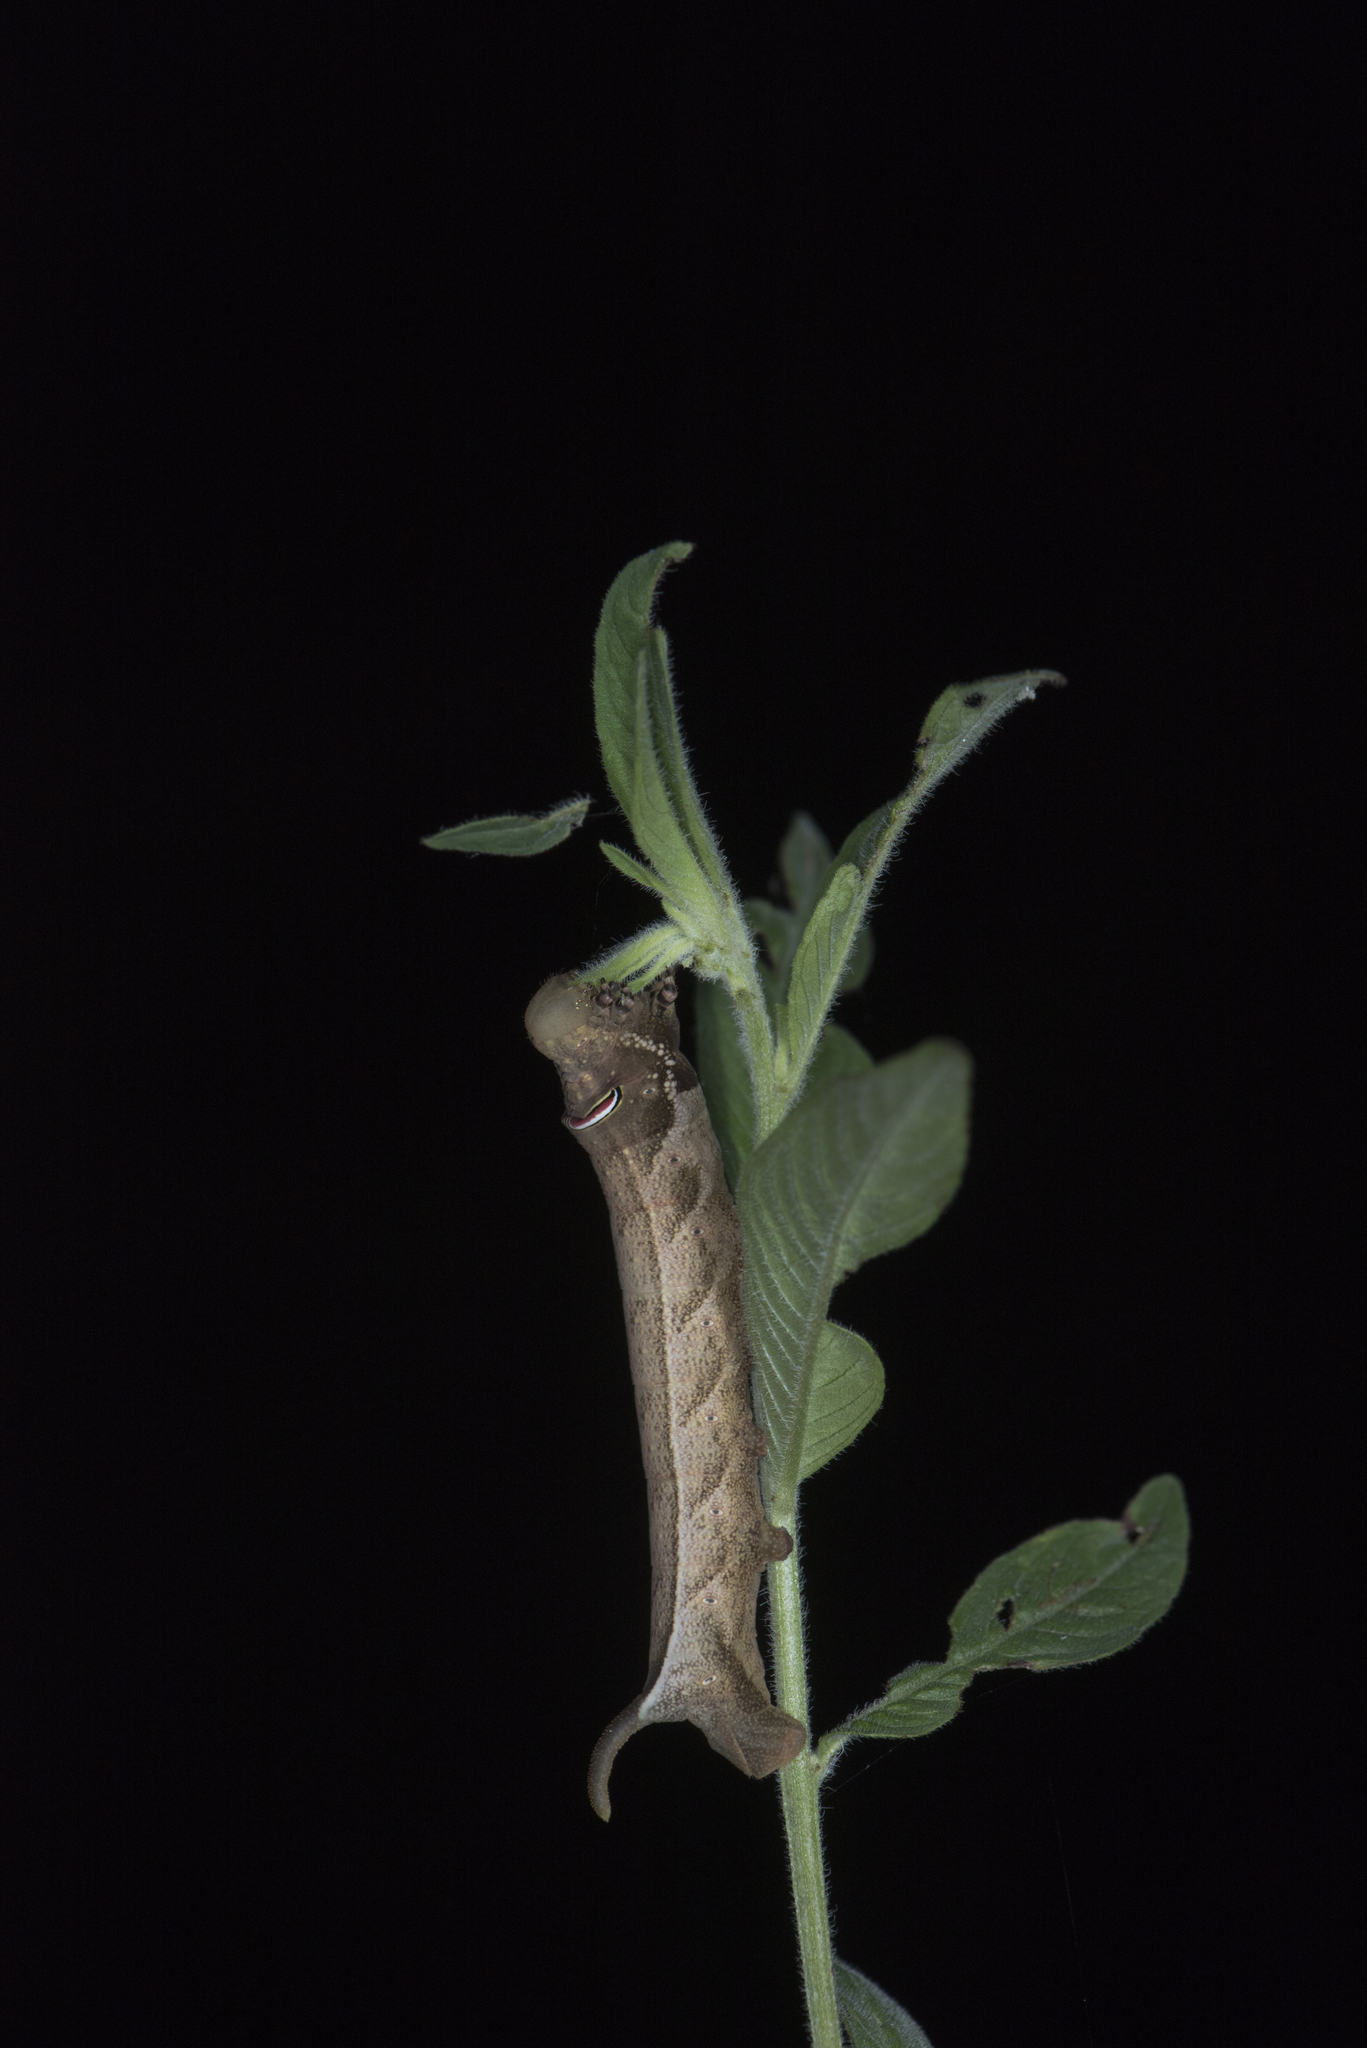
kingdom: Animalia
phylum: Arthropoda
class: Insecta
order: Lepidoptera
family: Sphingidae
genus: Theretra
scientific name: Theretra rhesus
